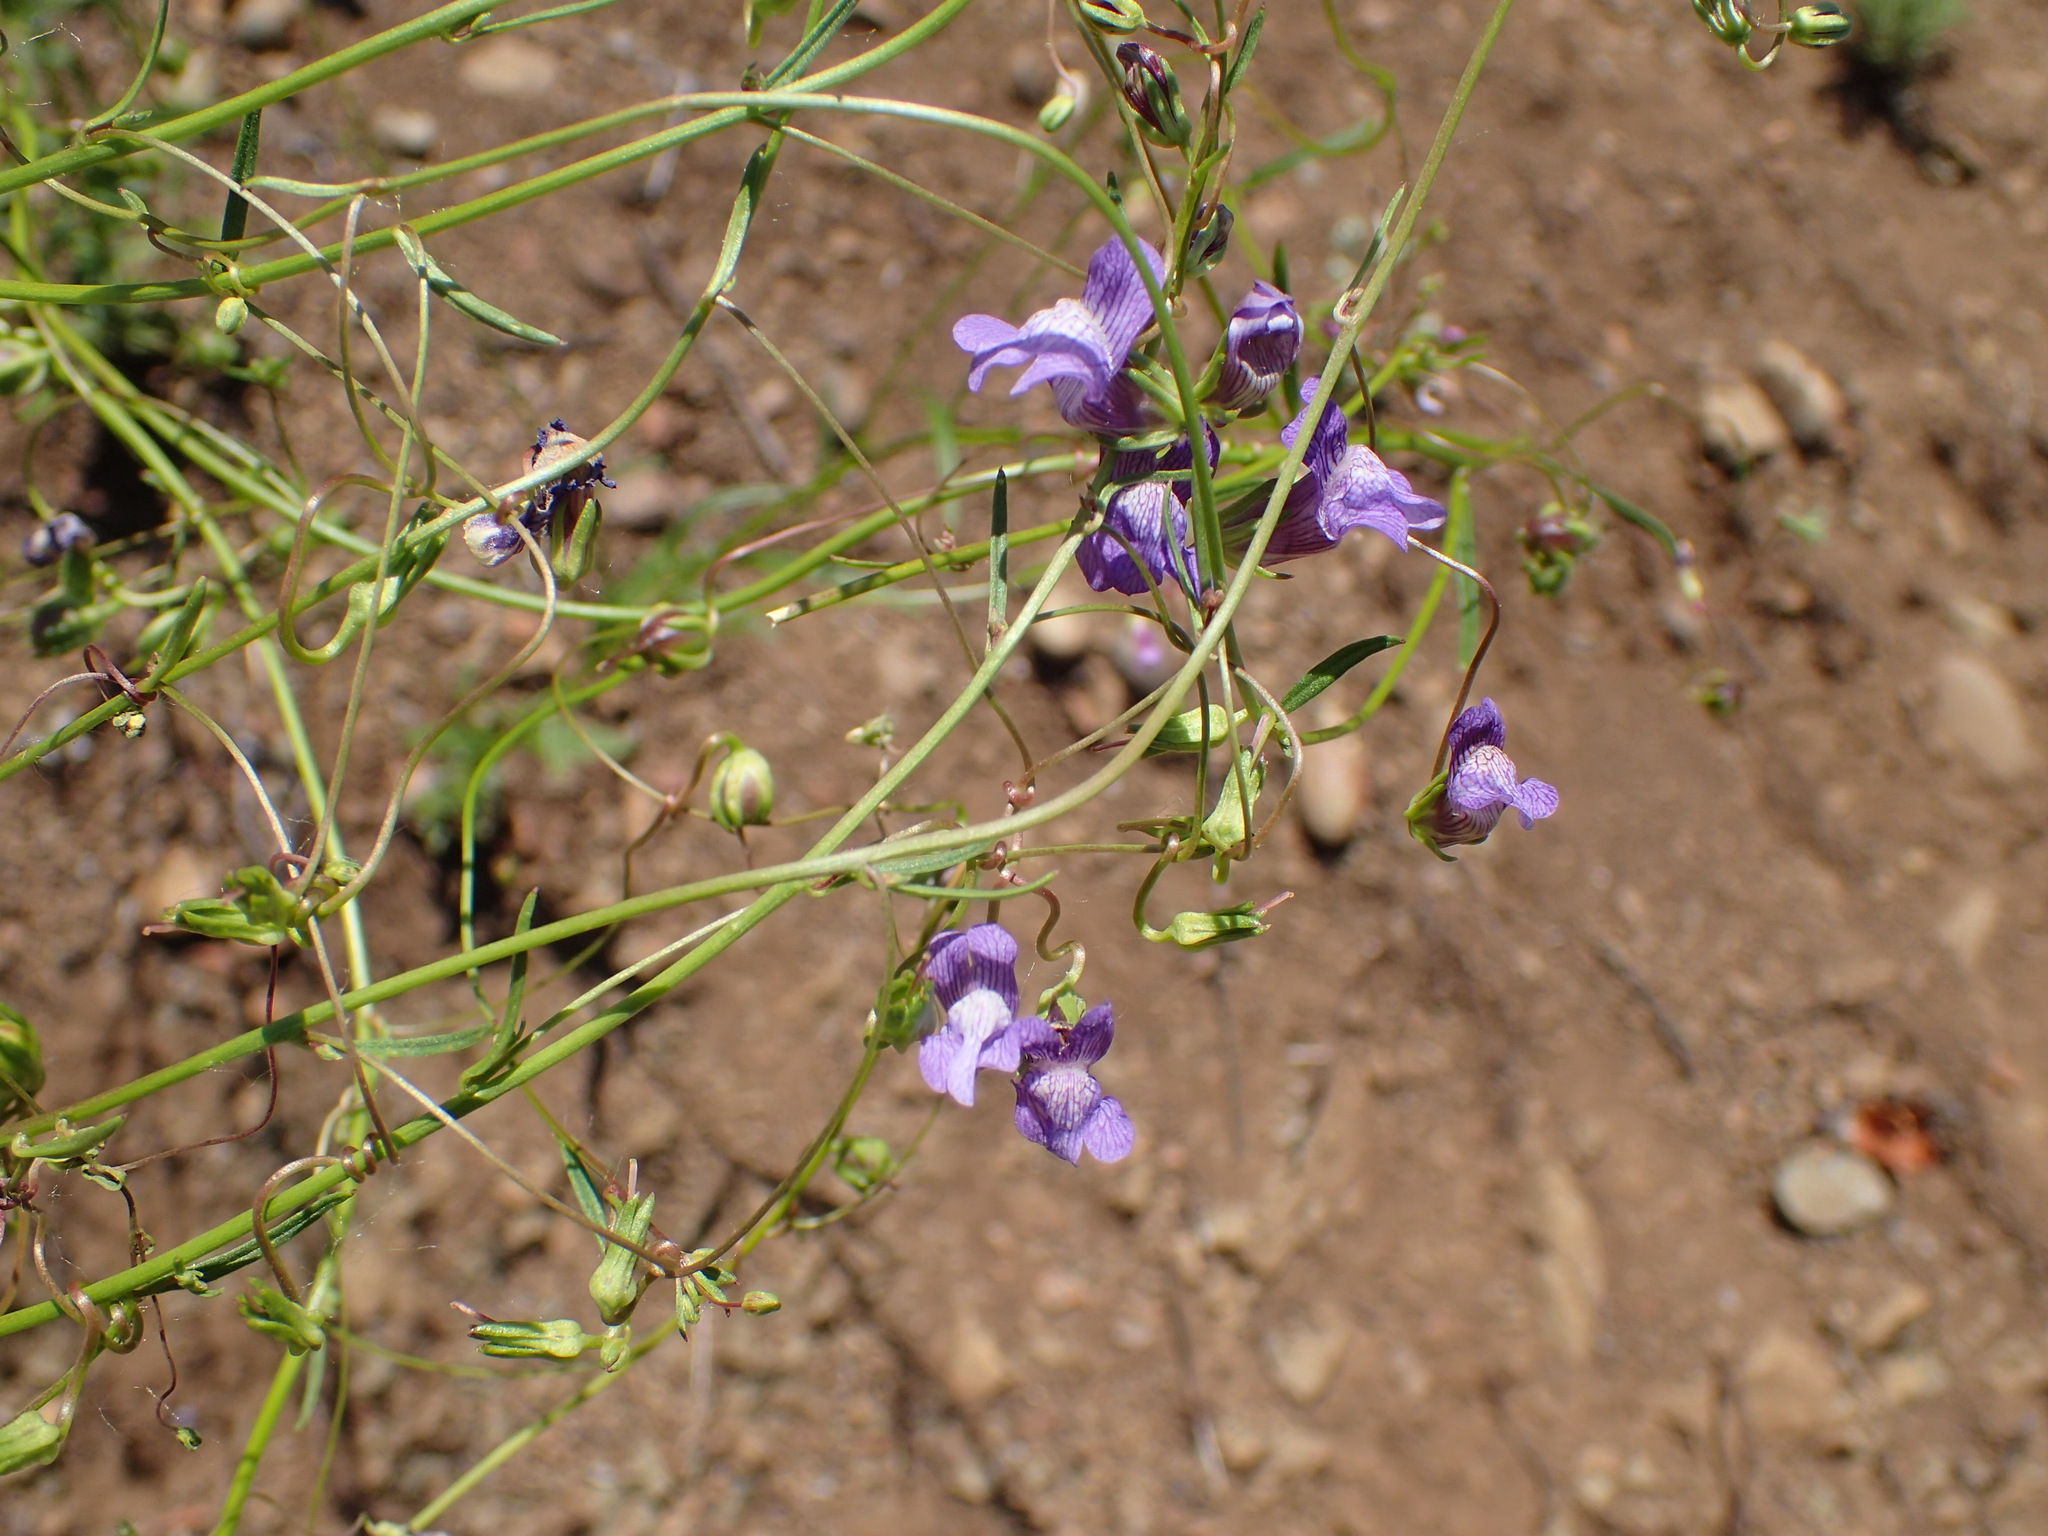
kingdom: Plantae
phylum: Tracheophyta
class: Magnoliopsida
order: Lamiales
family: Plantaginaceae
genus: Neogaerrhinum
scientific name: Neogaerrhinum strictum
